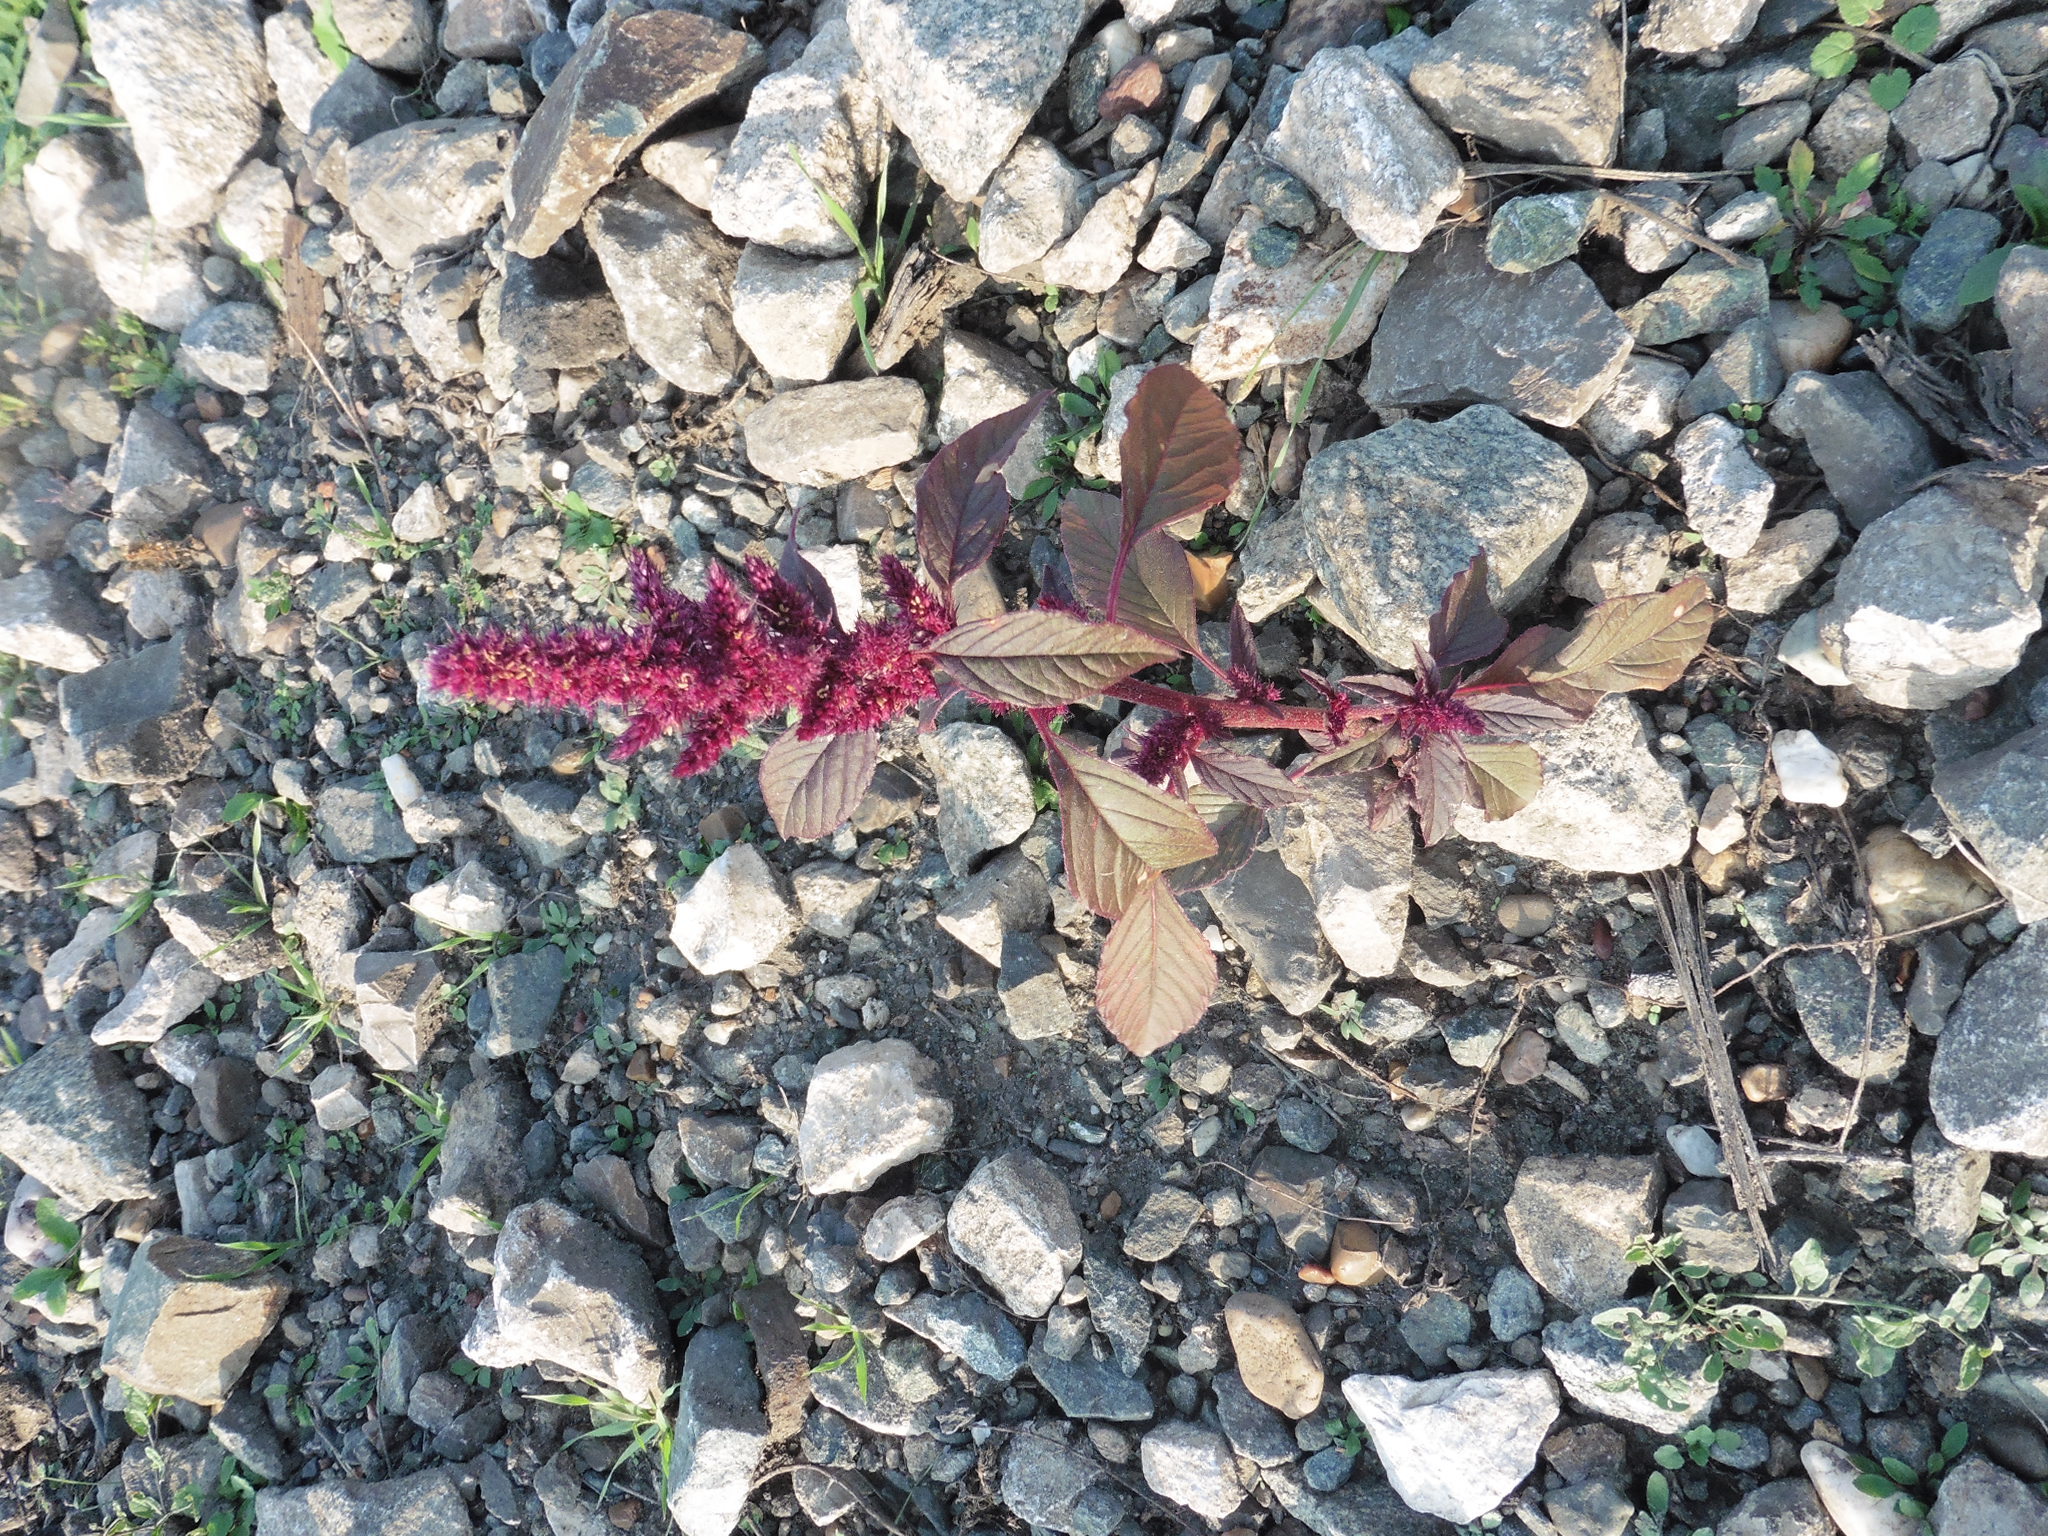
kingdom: Plantae
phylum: Tracheophyta
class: Magnoliopsida
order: Caryophyllales
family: Amaranthaceae
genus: Amaranthus
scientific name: Amaranthus cruentus
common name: Purple amaranth
